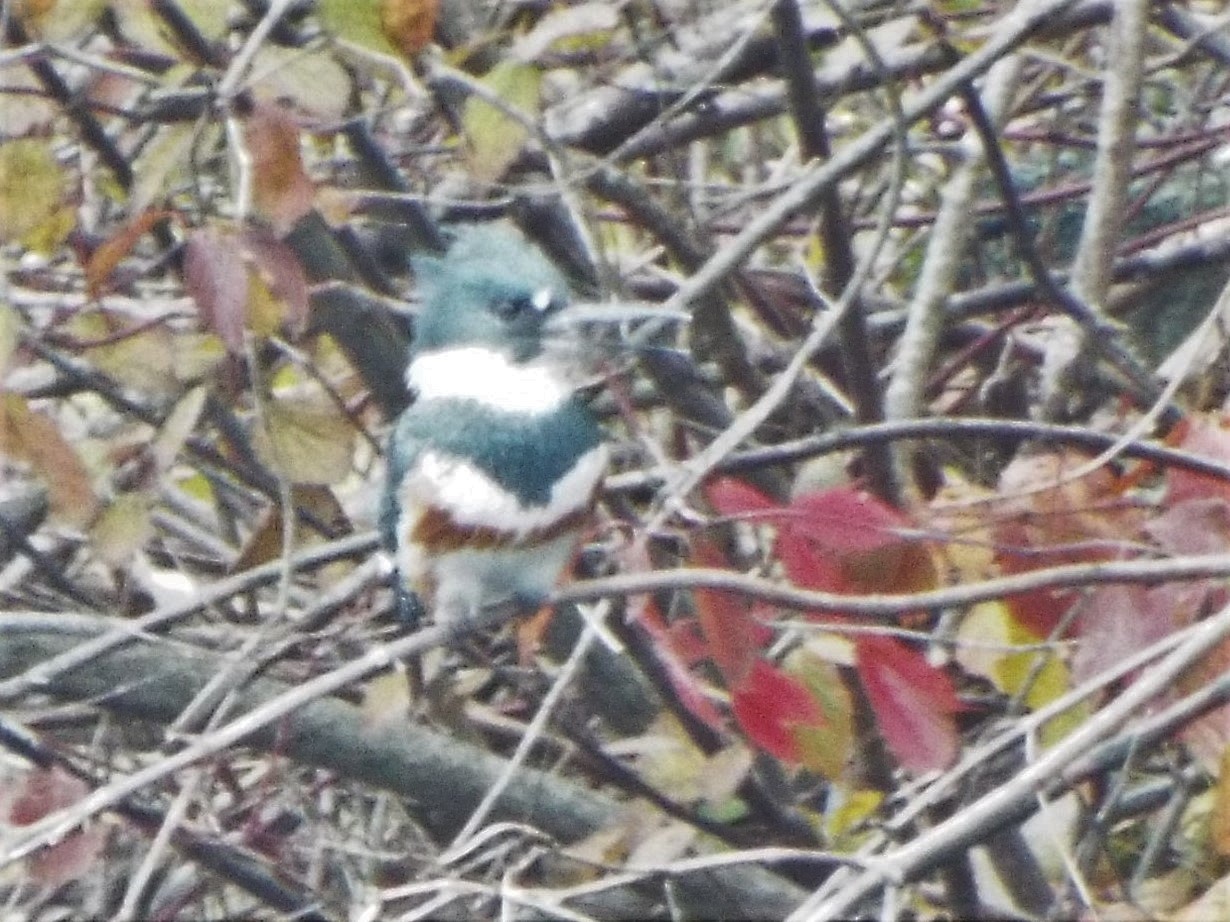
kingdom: Animalia
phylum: Chordata
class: Aves
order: Coraciiformes
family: Alcedinidae
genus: Megaceryle
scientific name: Megaceryle alcyon
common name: Belted kingfisher
